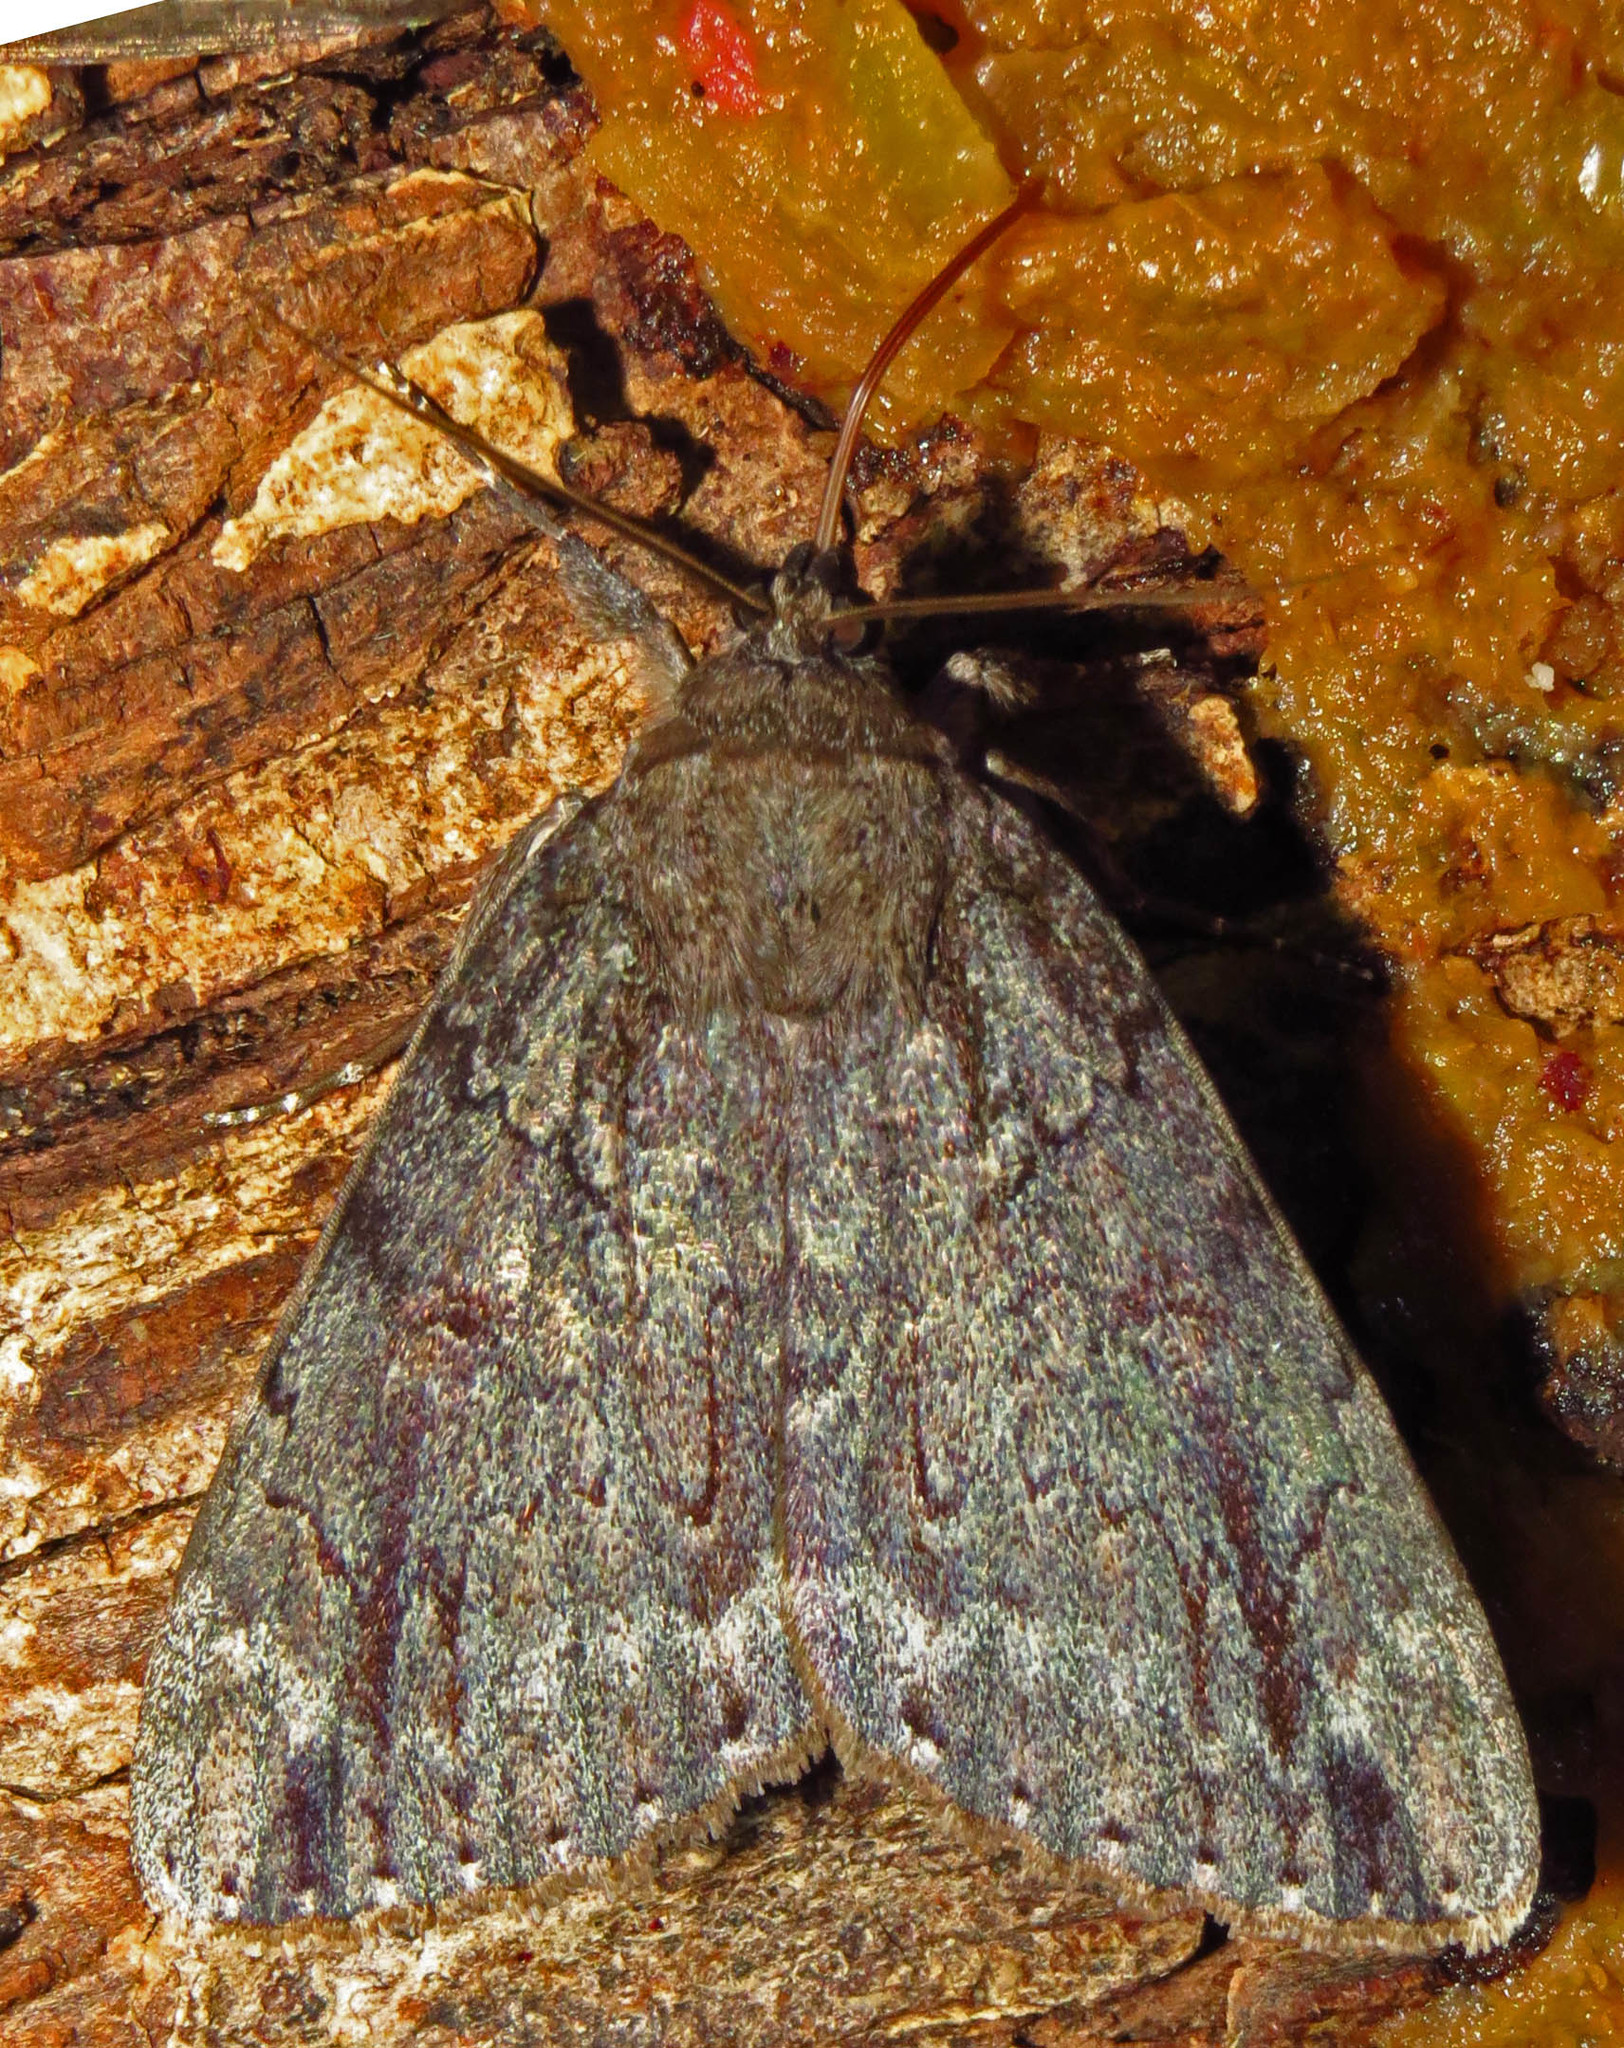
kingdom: Animalia
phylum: Arthropoda
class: Insecta
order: Lepidoptera
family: Erebidae
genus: Catocala
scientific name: Catocala residua
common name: Residua underwing
